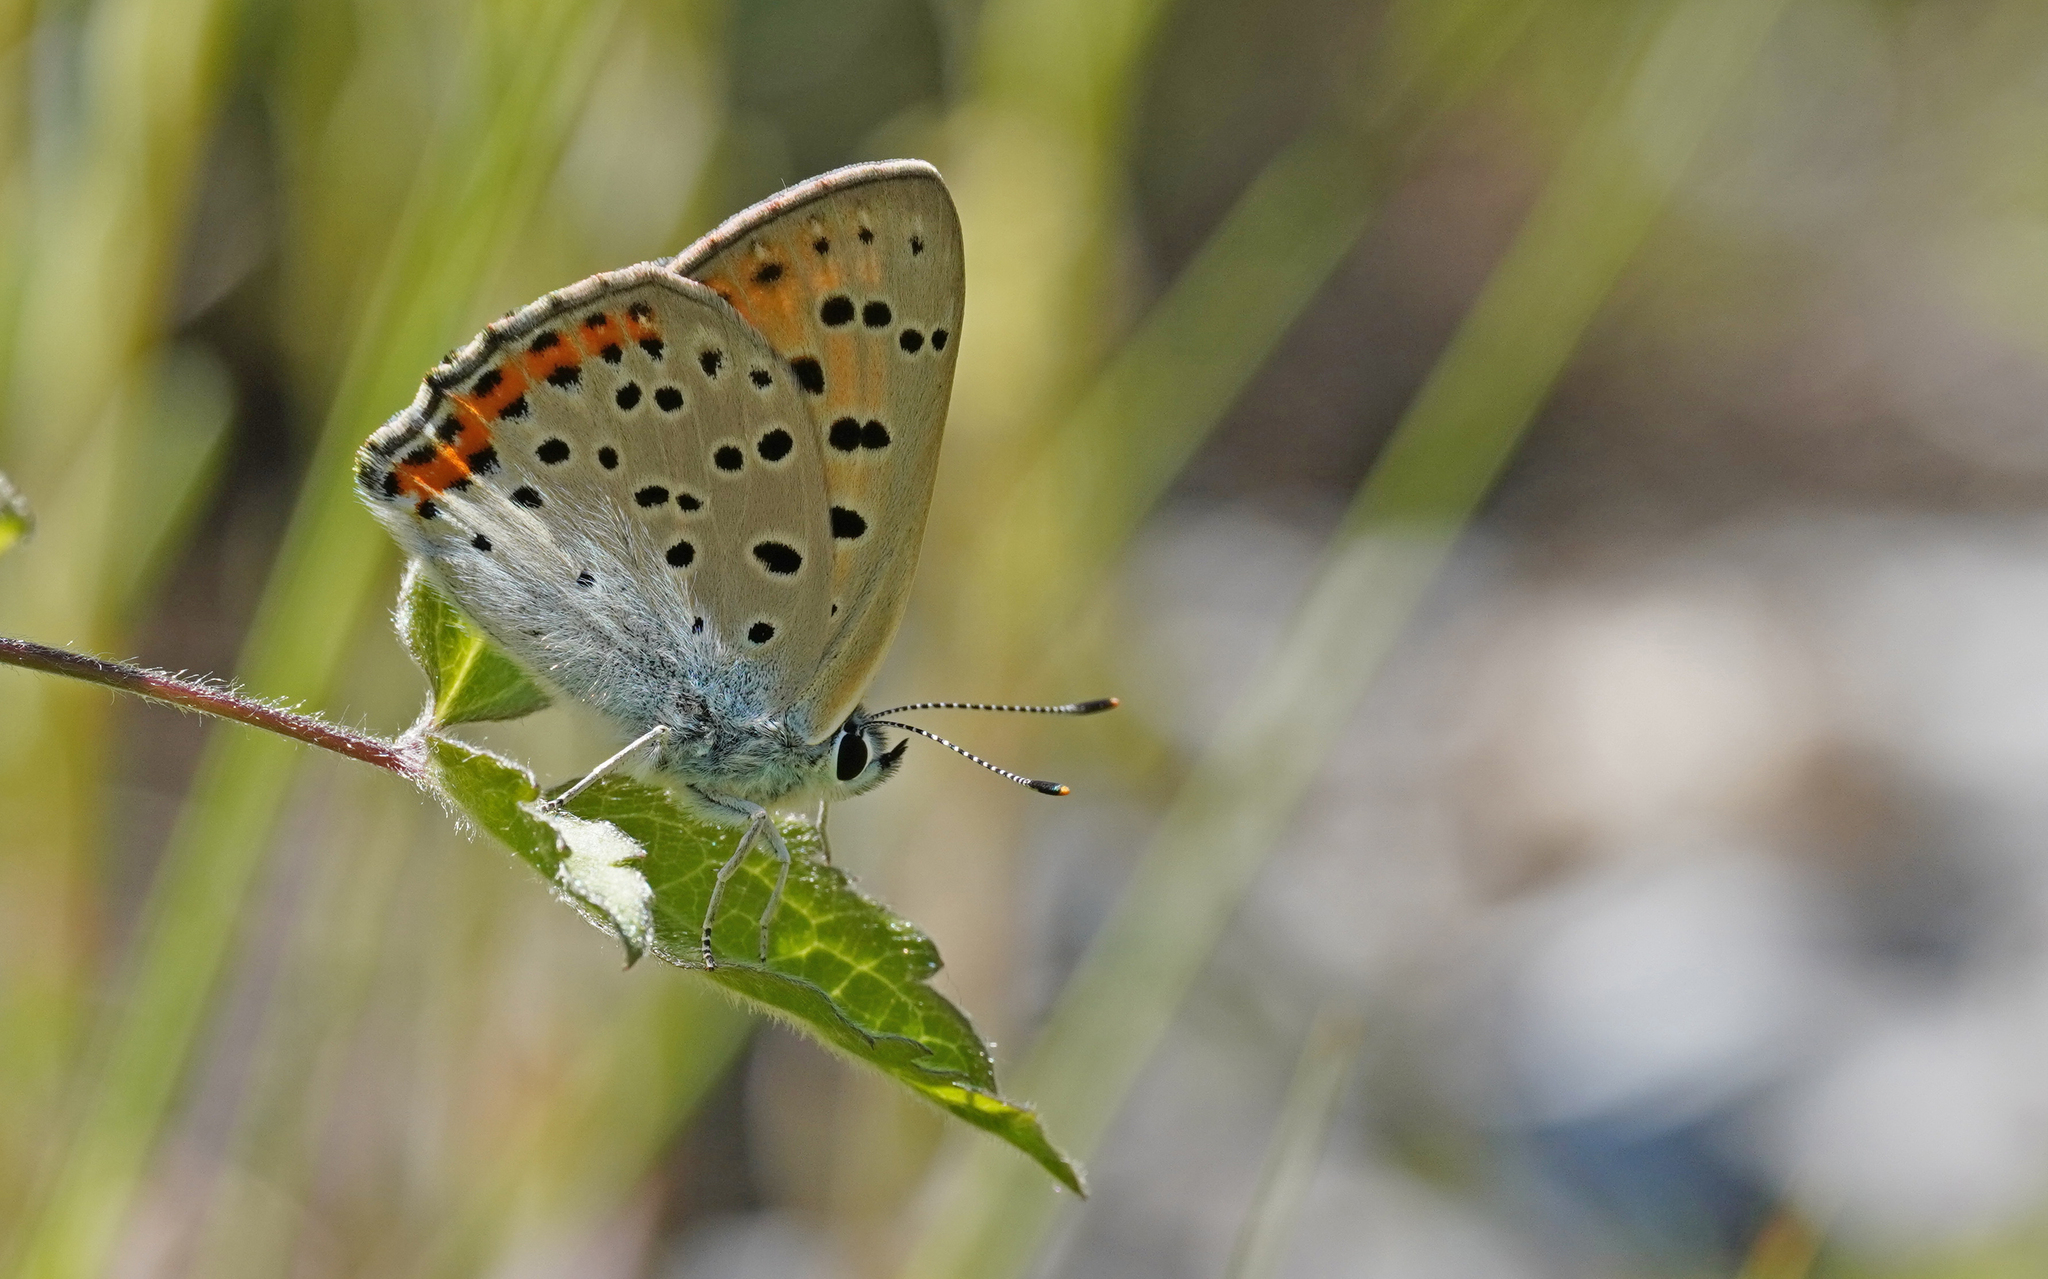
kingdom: Animalia
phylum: Arthropoda
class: Insecta
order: Lepidoptera
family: Lycaenidae
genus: Lycaena
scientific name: Lycaena alciphron
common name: Purple-shot copper
